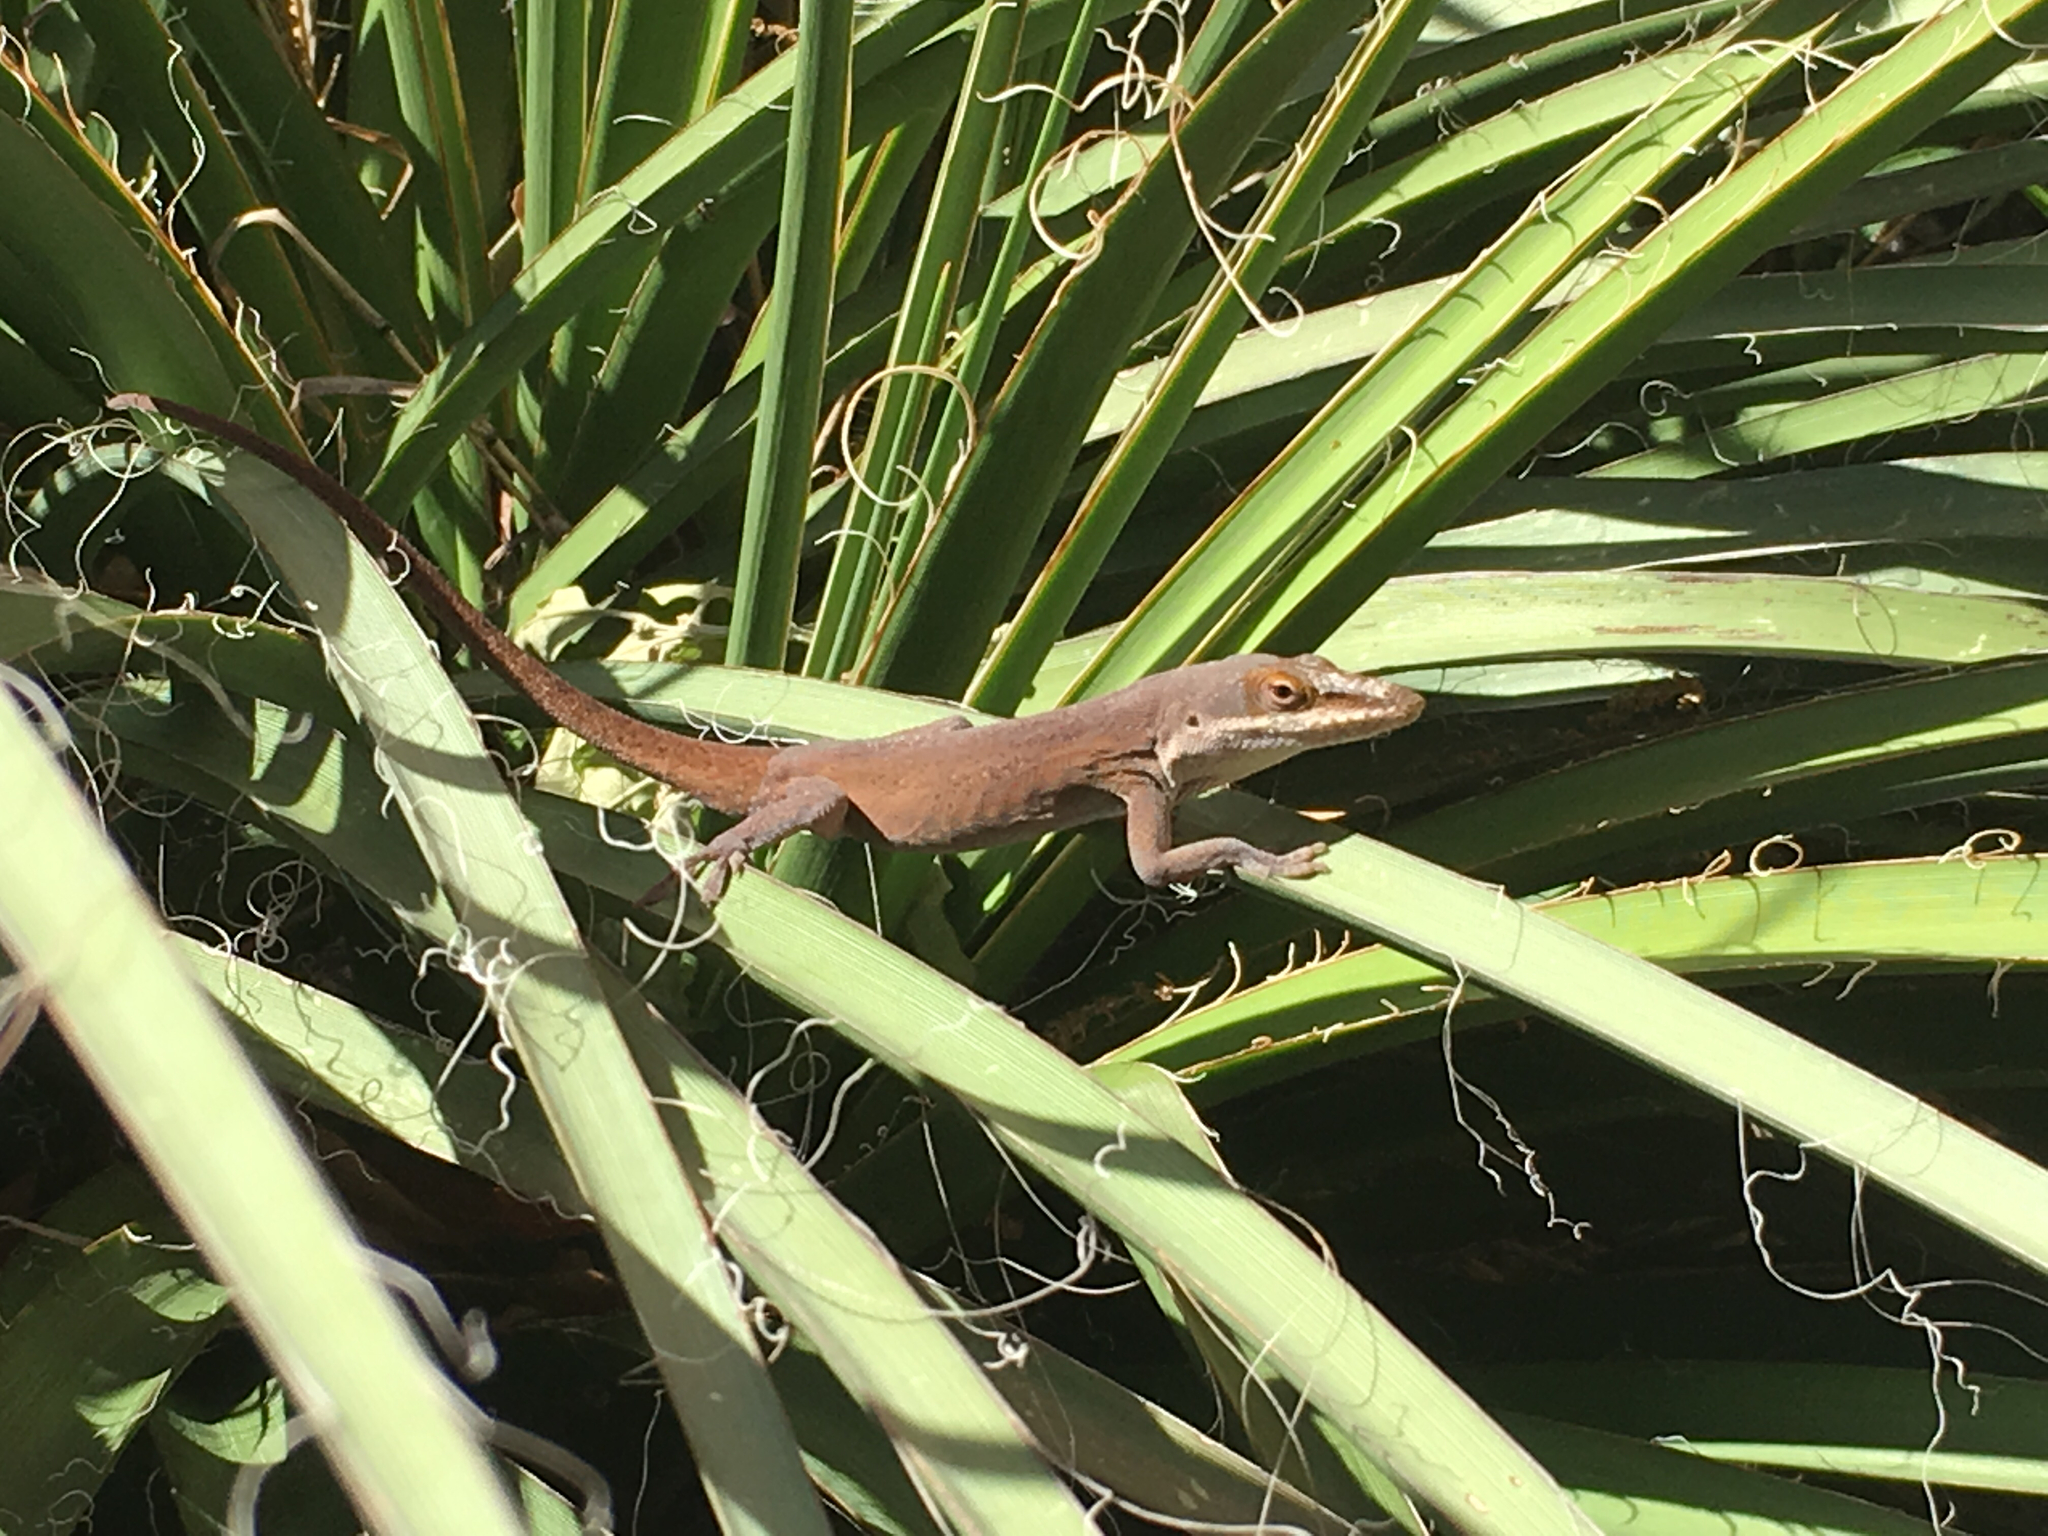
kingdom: Animalia
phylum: Chordata
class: Squamata
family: Dactyloidae
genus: Anolis
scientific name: Anolis carolinensis
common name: Green anole
